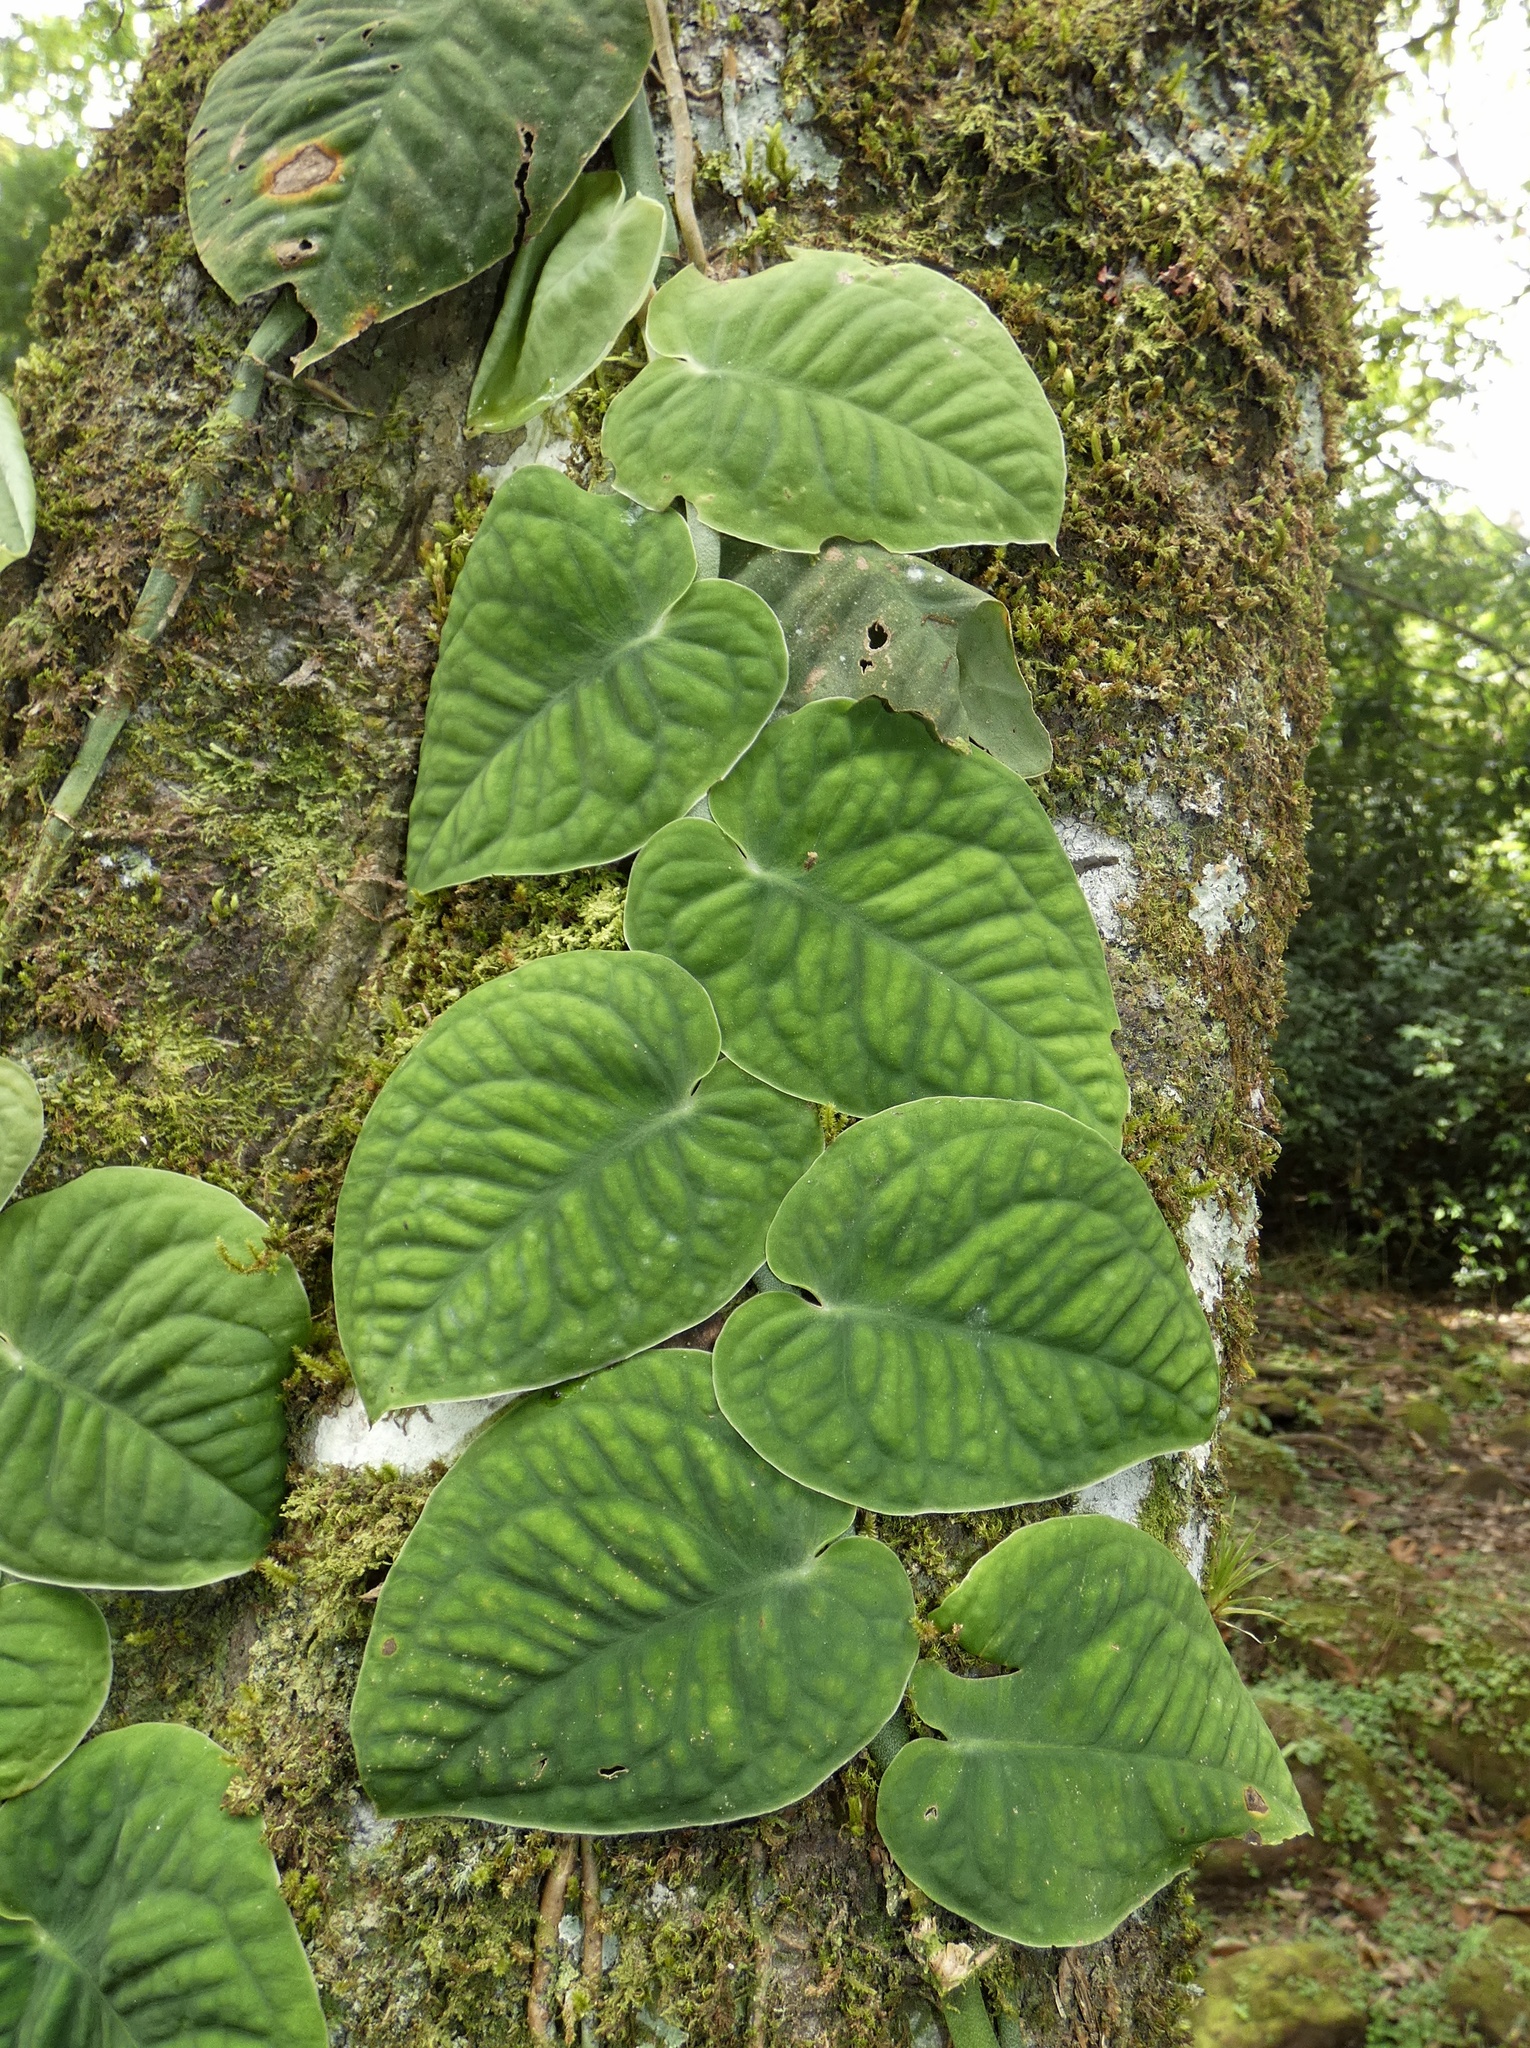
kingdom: Plantae
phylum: Tracheophyta
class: Liliopsida
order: Alismatales
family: Araceae
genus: Monstera
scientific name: Monstera dubia
